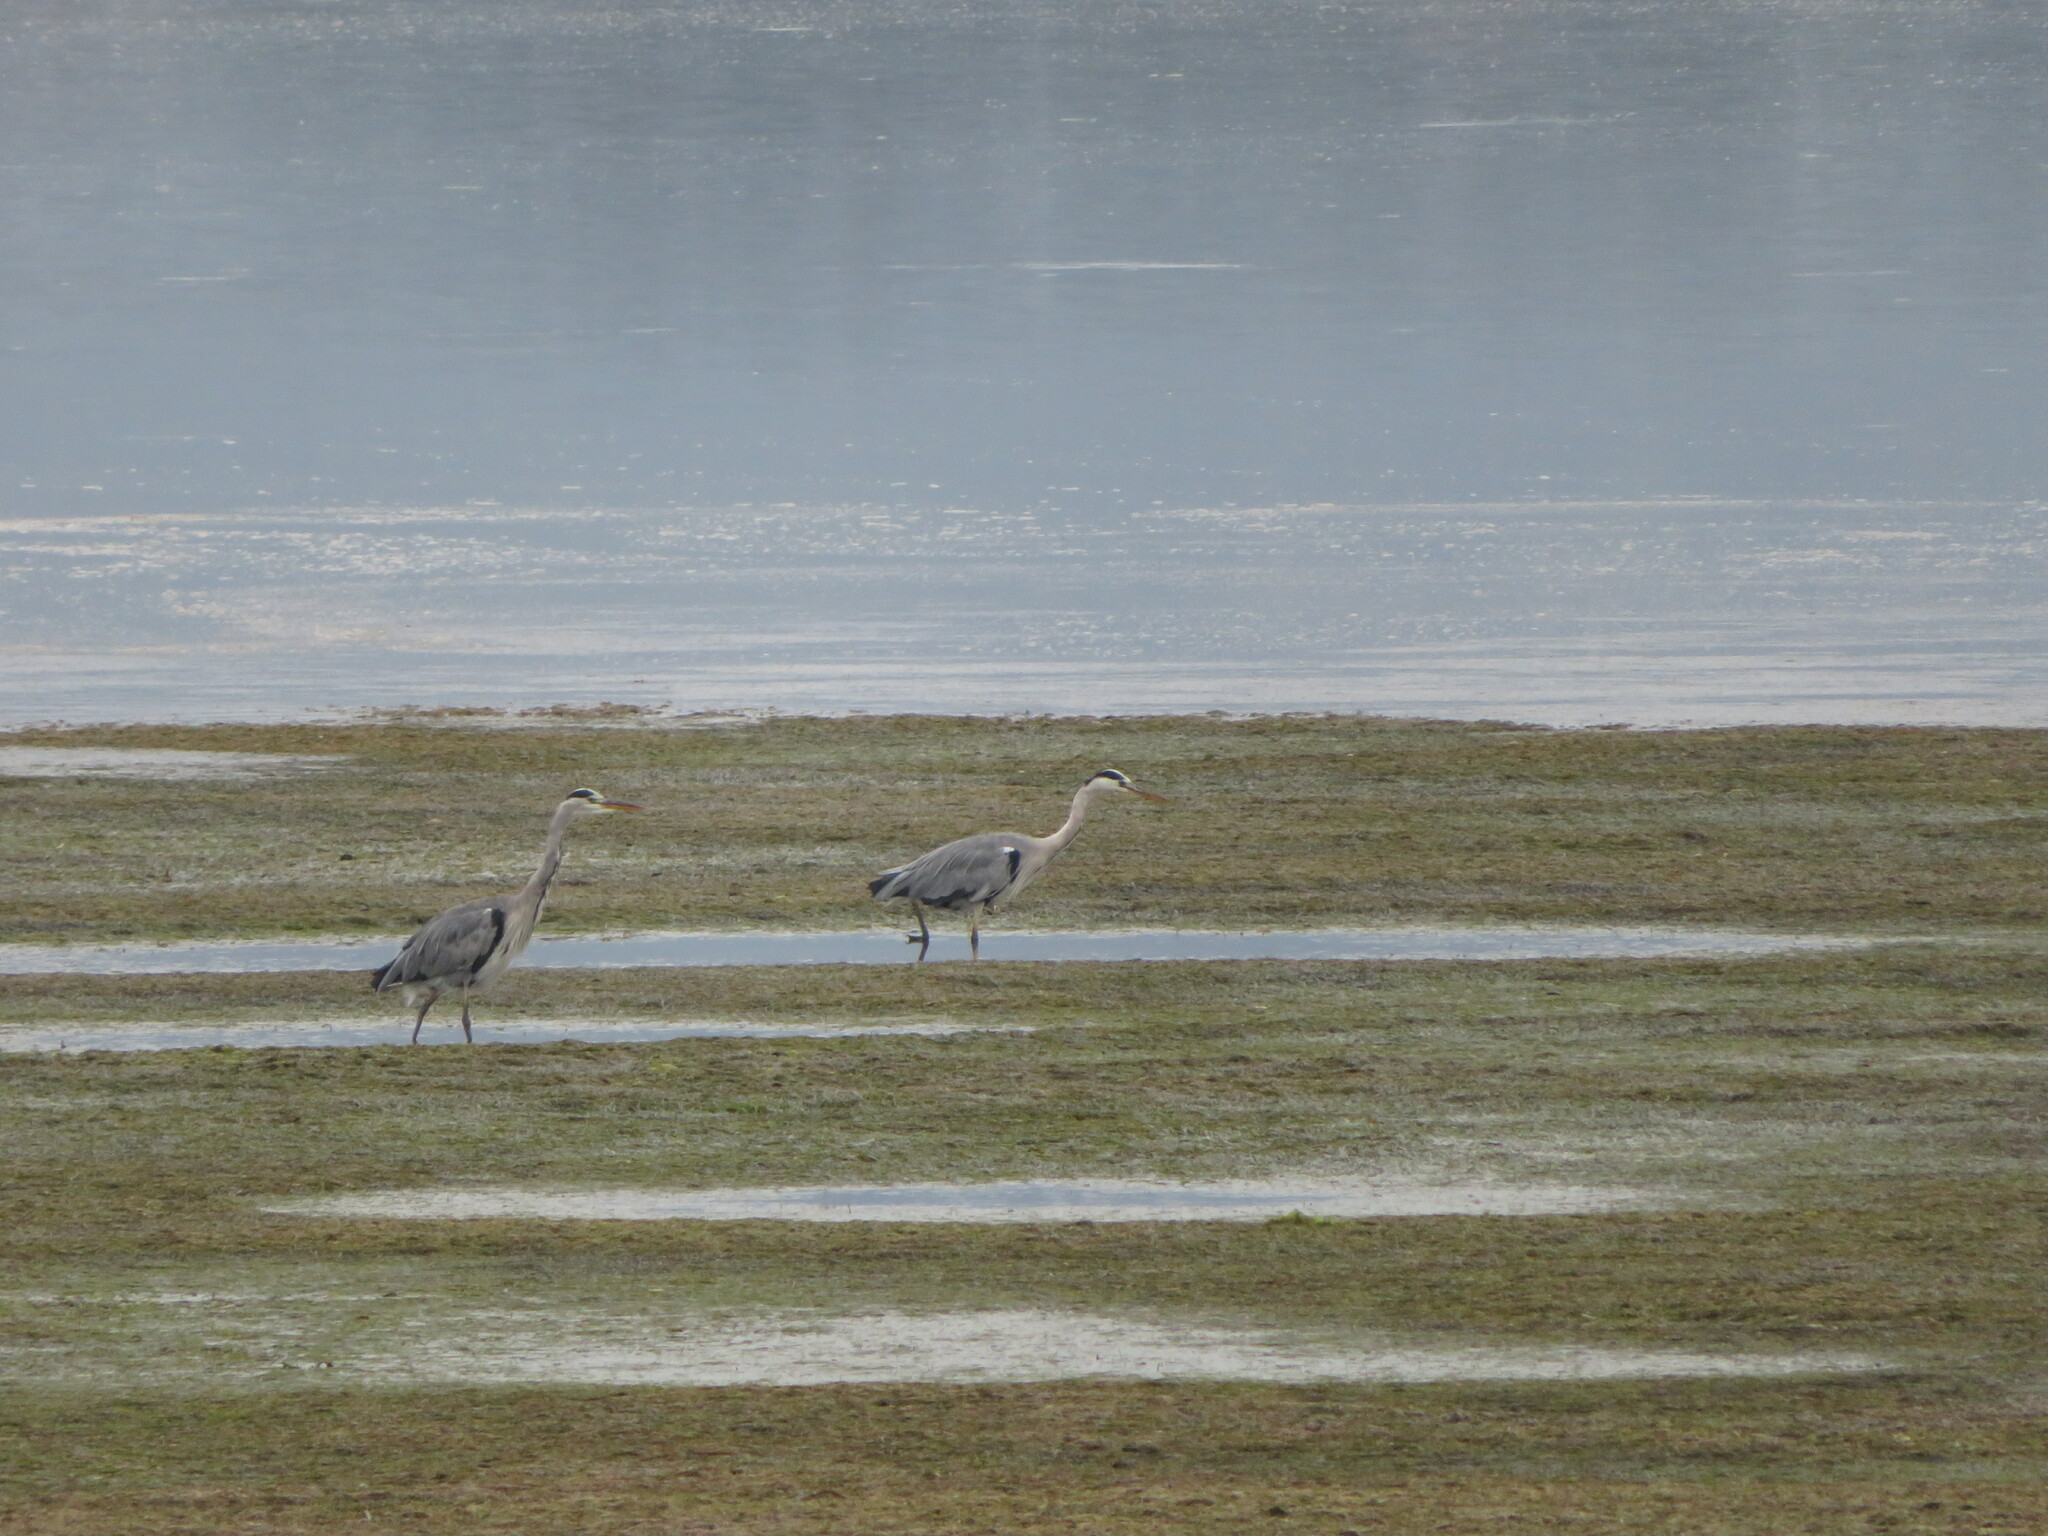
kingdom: Animalia
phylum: Chordata
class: Aves
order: Pelecaniformes
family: Ardeidae
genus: Ardea
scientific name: Ardea cinerea
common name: Grey heron
